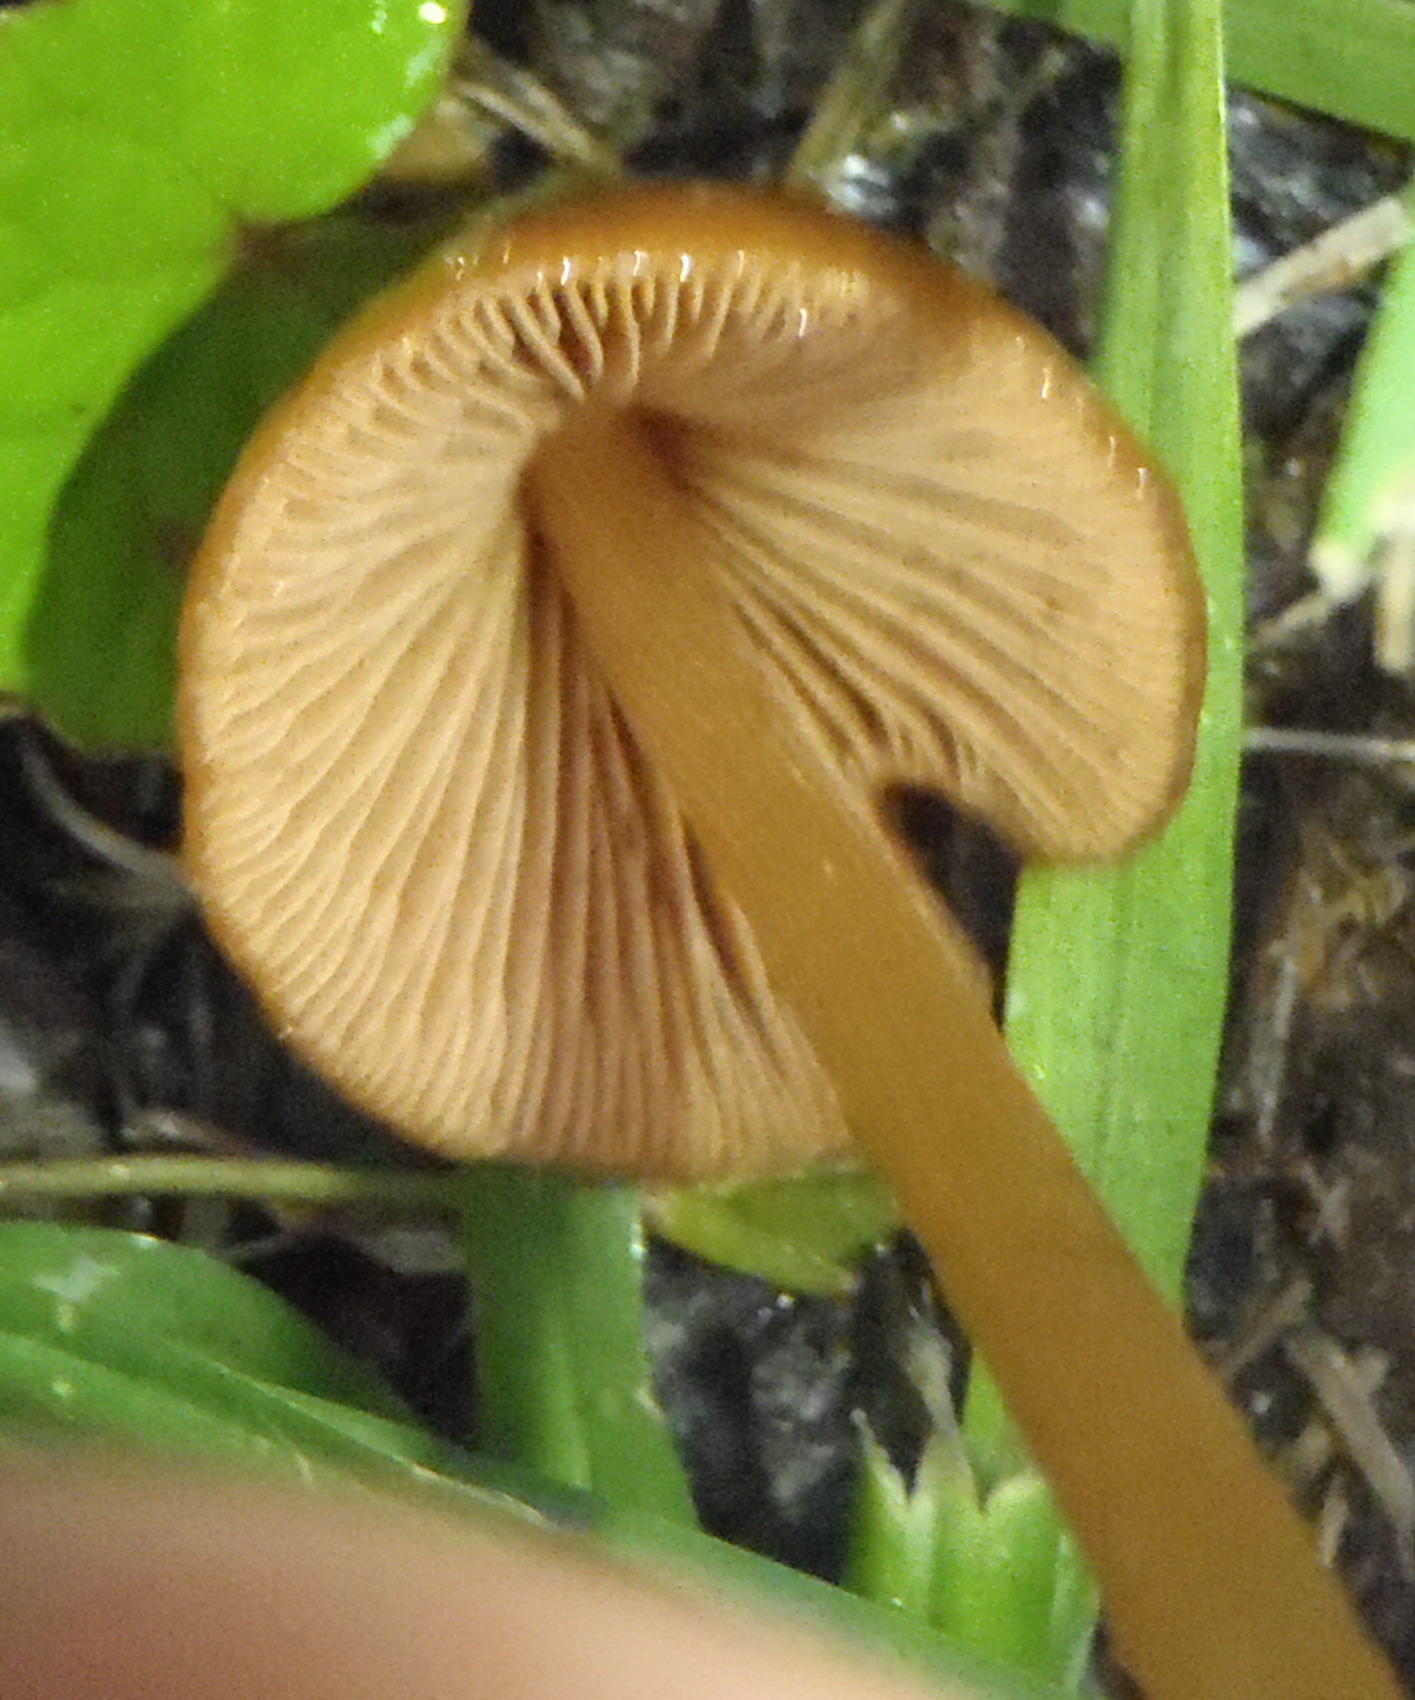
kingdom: Fungi
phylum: Basidiomycota
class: Agaricomycetes
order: Agaricales
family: Bolbitiaceae
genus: Conocybe
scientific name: Conocybe tenera
